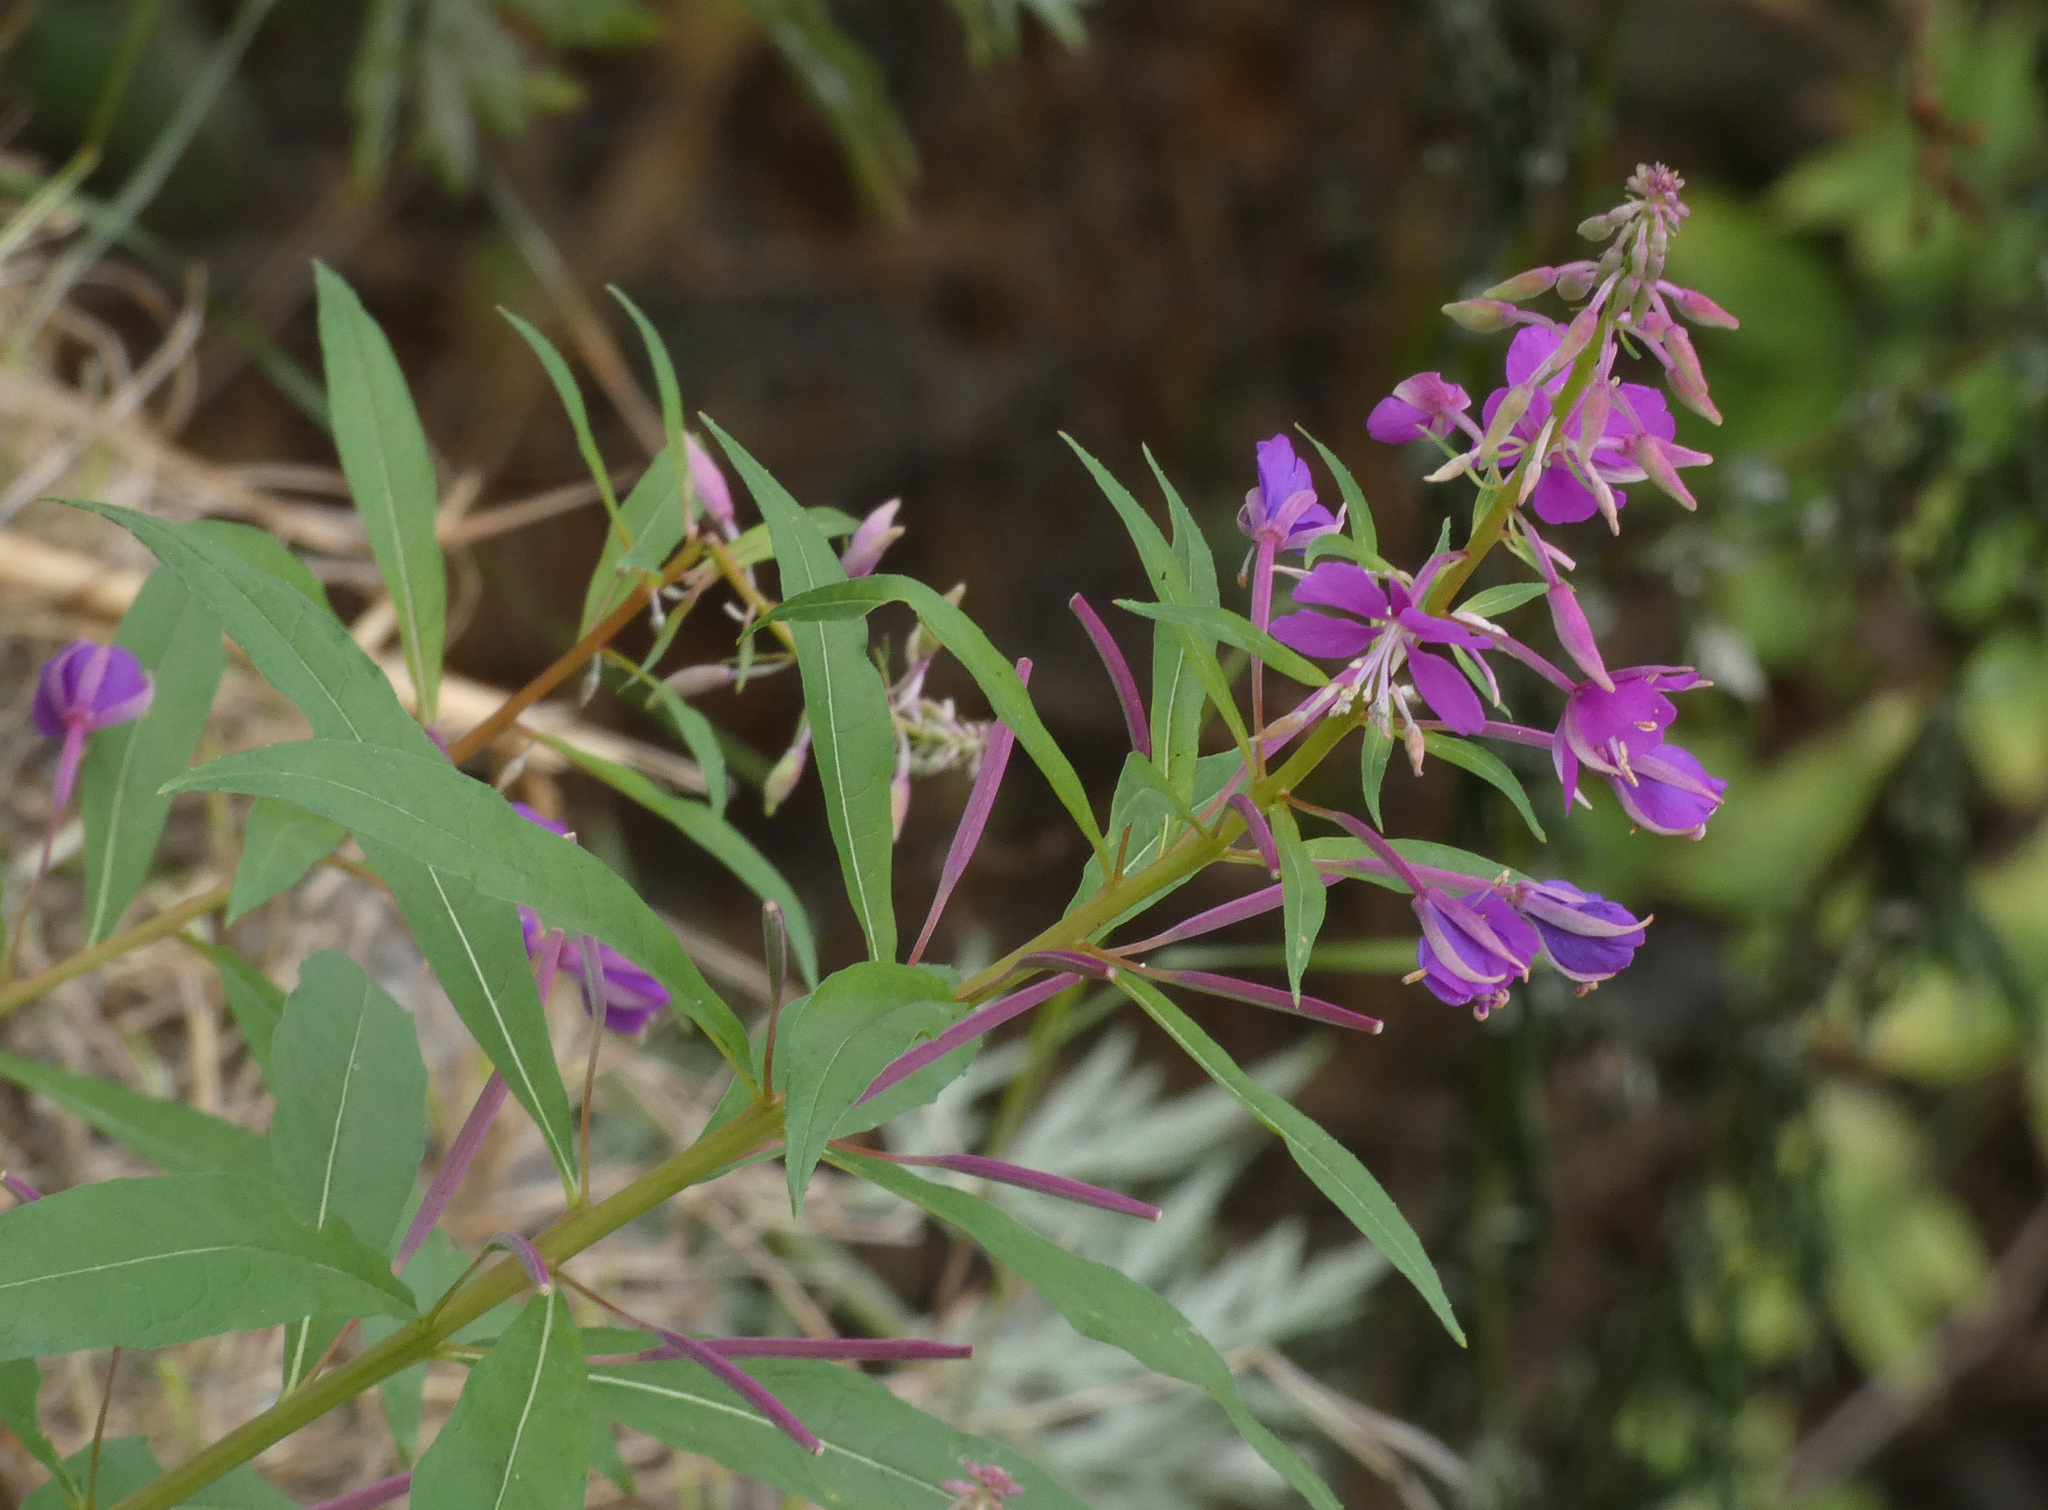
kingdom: Plantae
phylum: Tracheophyta
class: Magnoliopsida
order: Myrtales
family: Onagraceae
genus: Chamaenerion
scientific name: Chamaenerion angustifolium
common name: Fireweed
